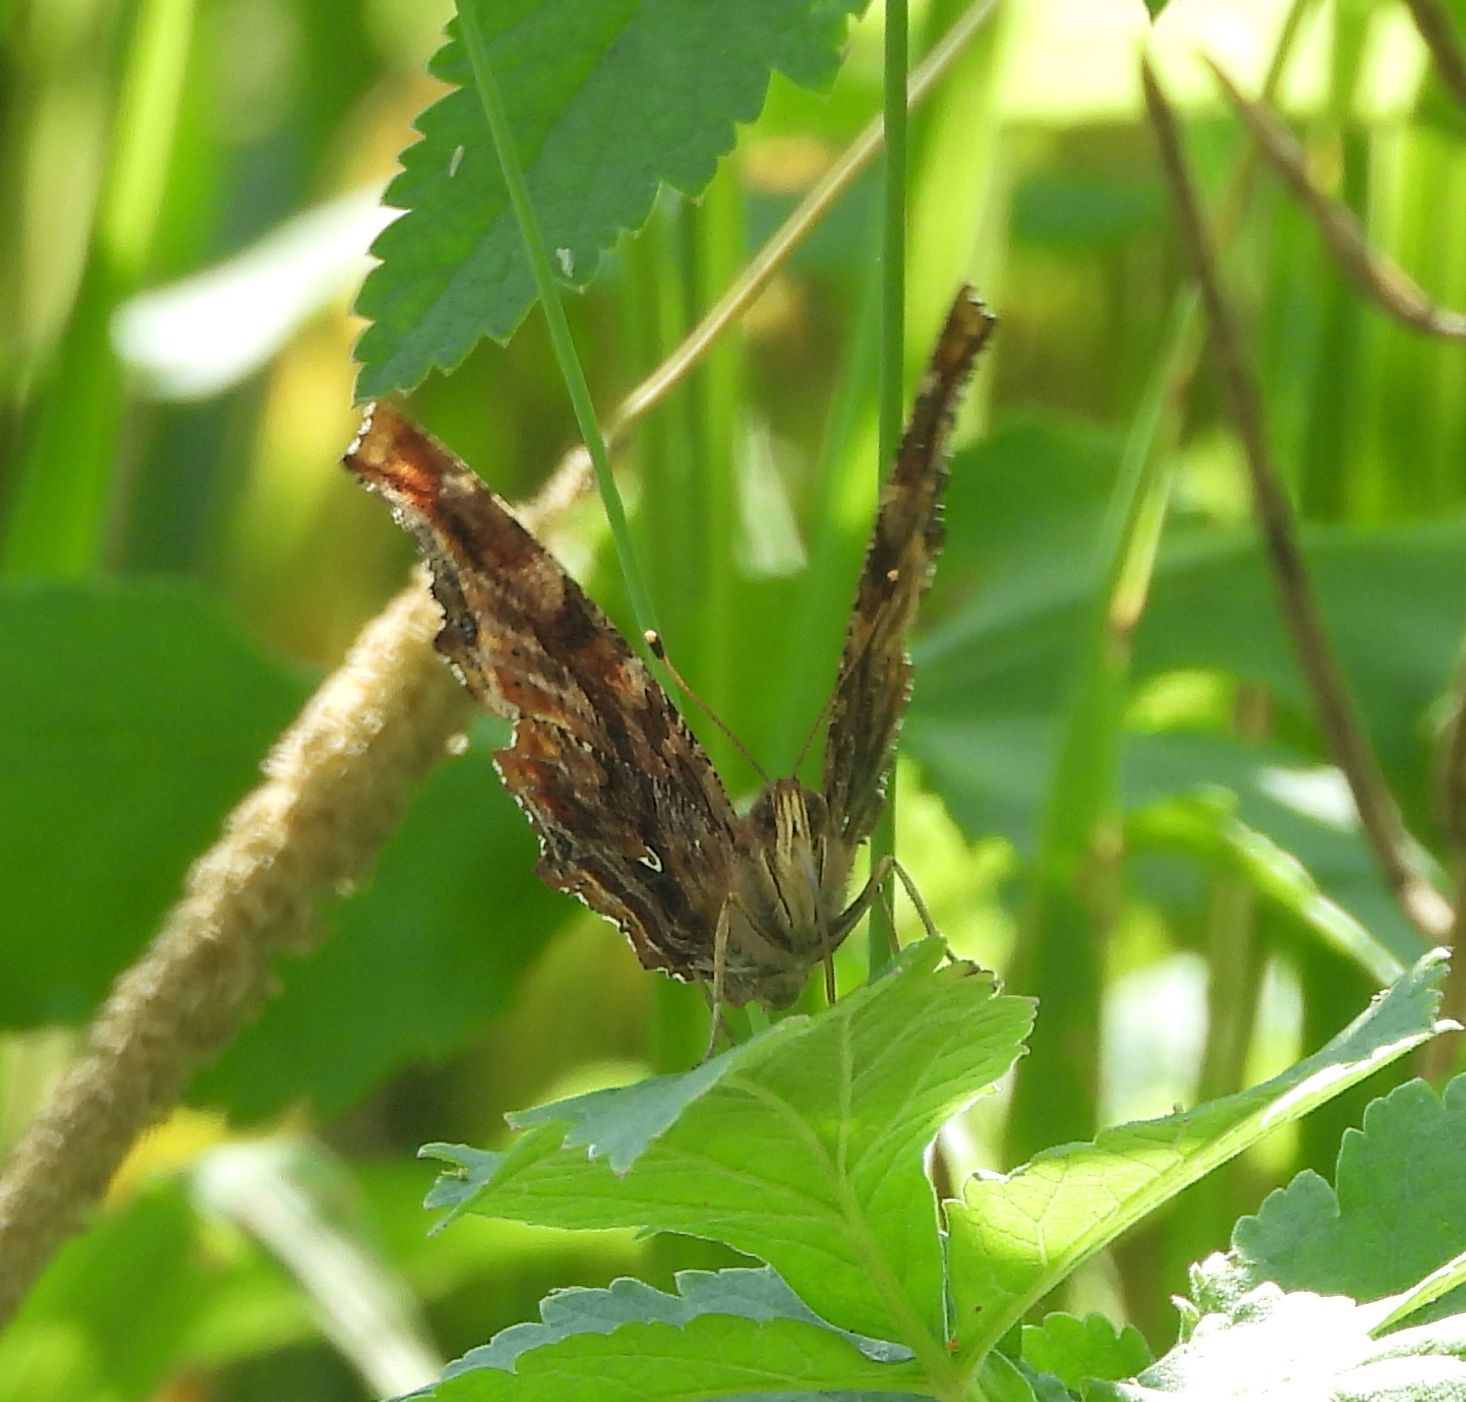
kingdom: Animalia
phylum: Arthropoda
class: Insecta
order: Lepidoptera
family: Nymphalidae
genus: Polygonia
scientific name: Polygonia comma
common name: Eastern comma
